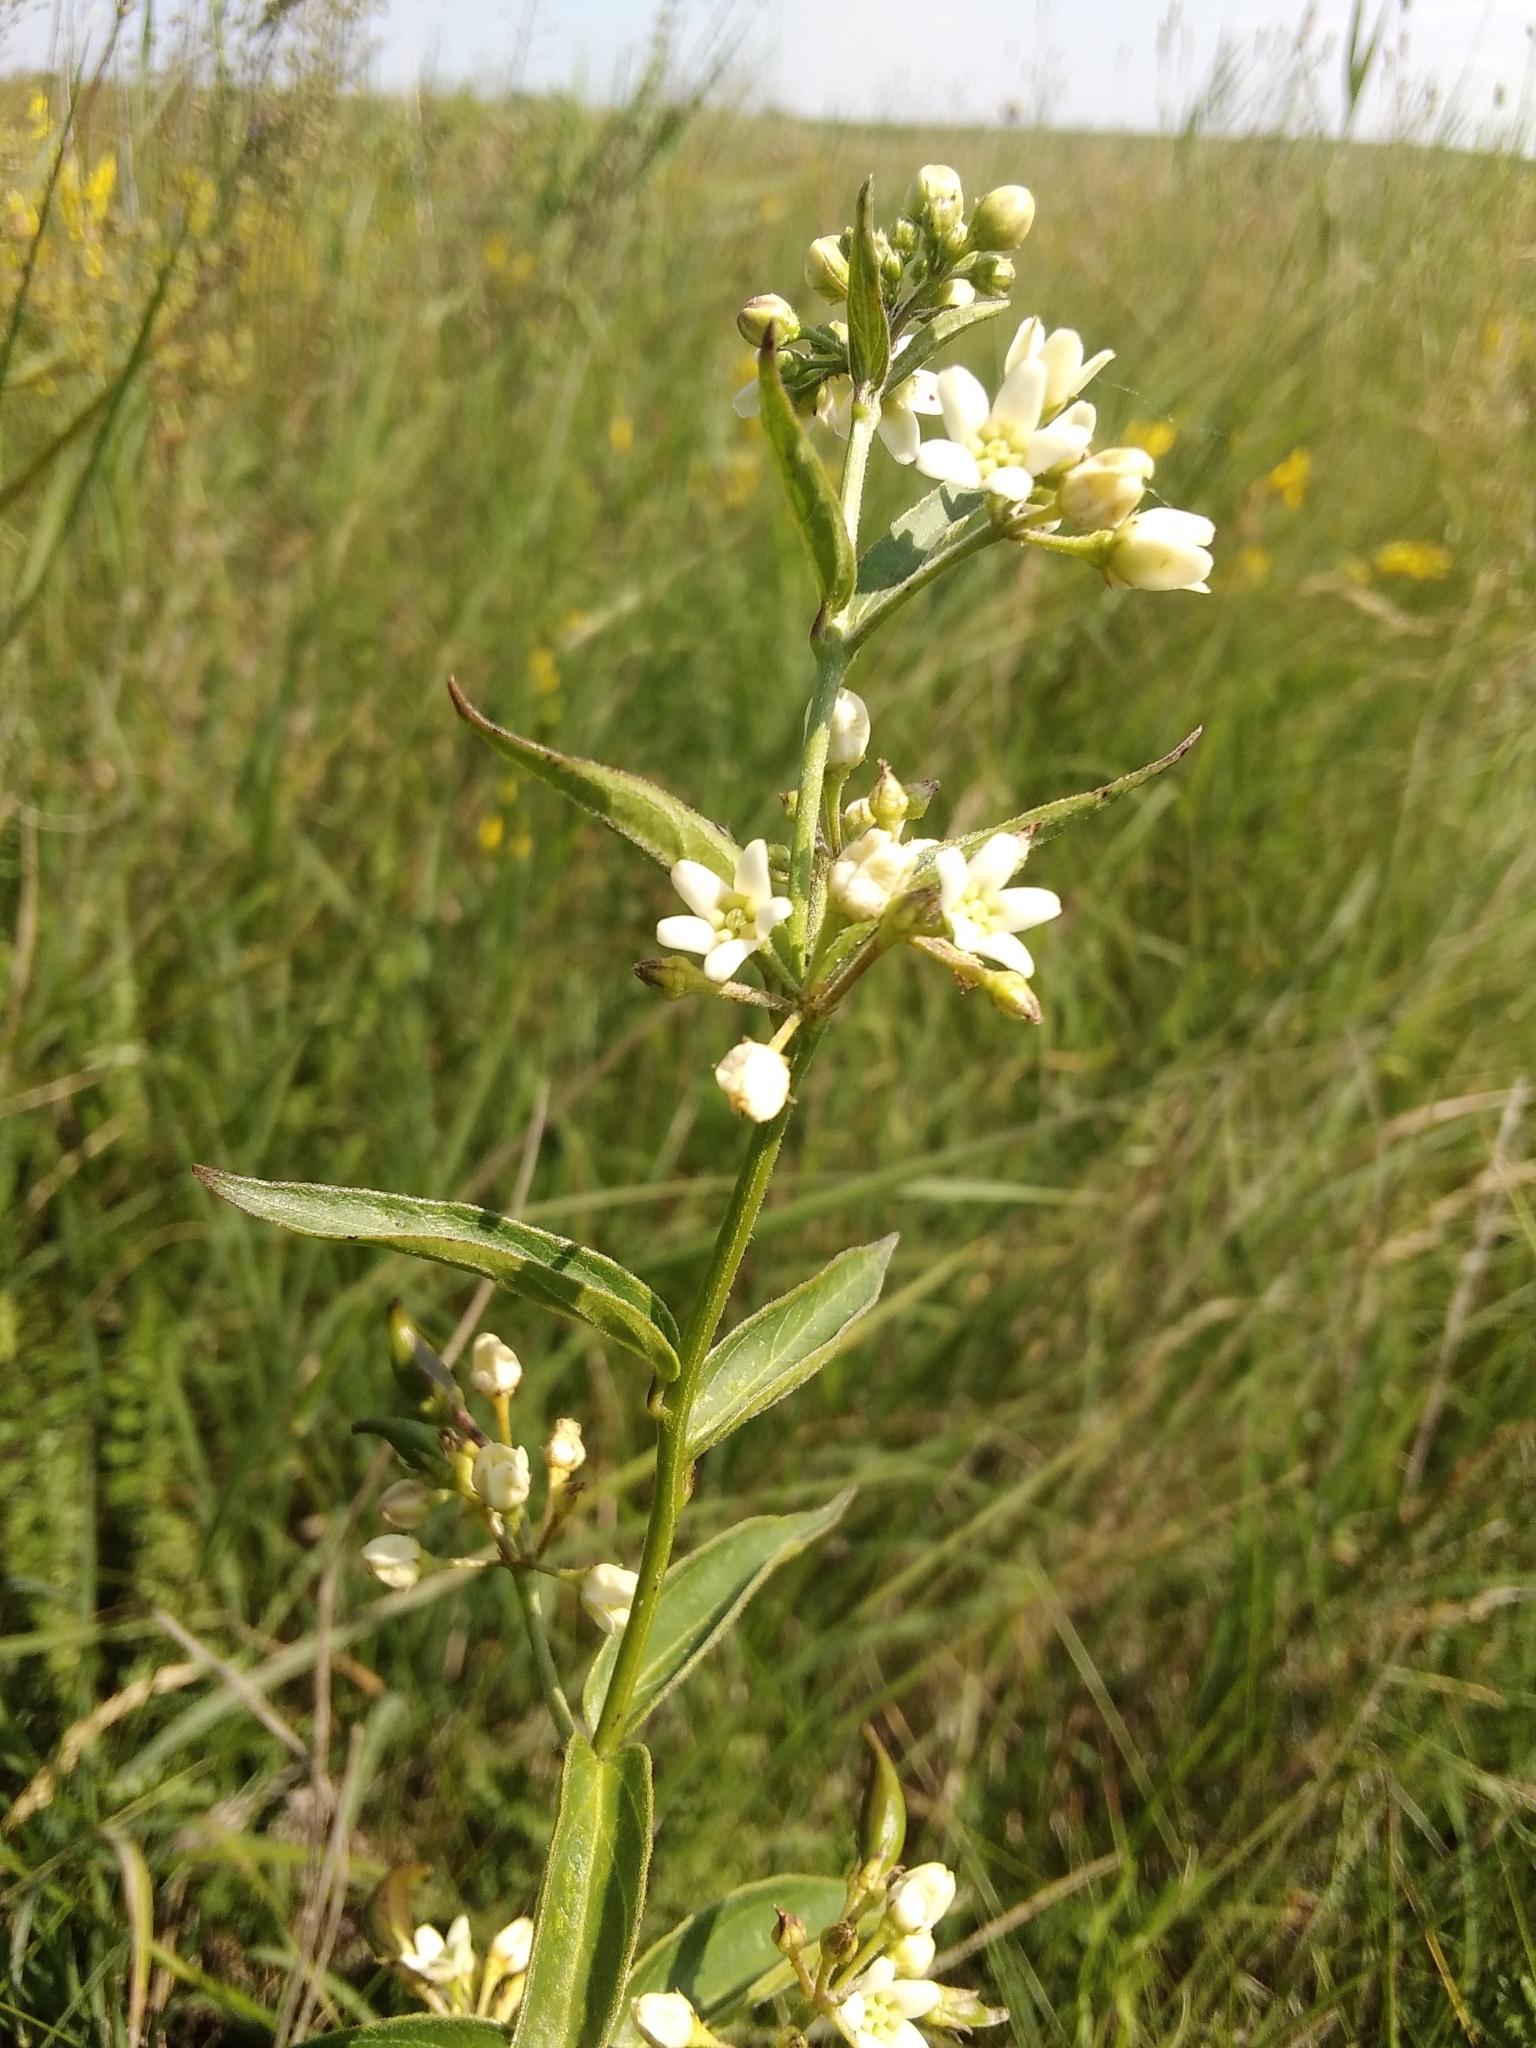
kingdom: Plantae
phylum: Tracheophyta
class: Magnoliopsida
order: Gentianales
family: Apocynaceae
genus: Vincetoxicum
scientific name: Vincetoxicum hirundinaria
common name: White swallowwort
